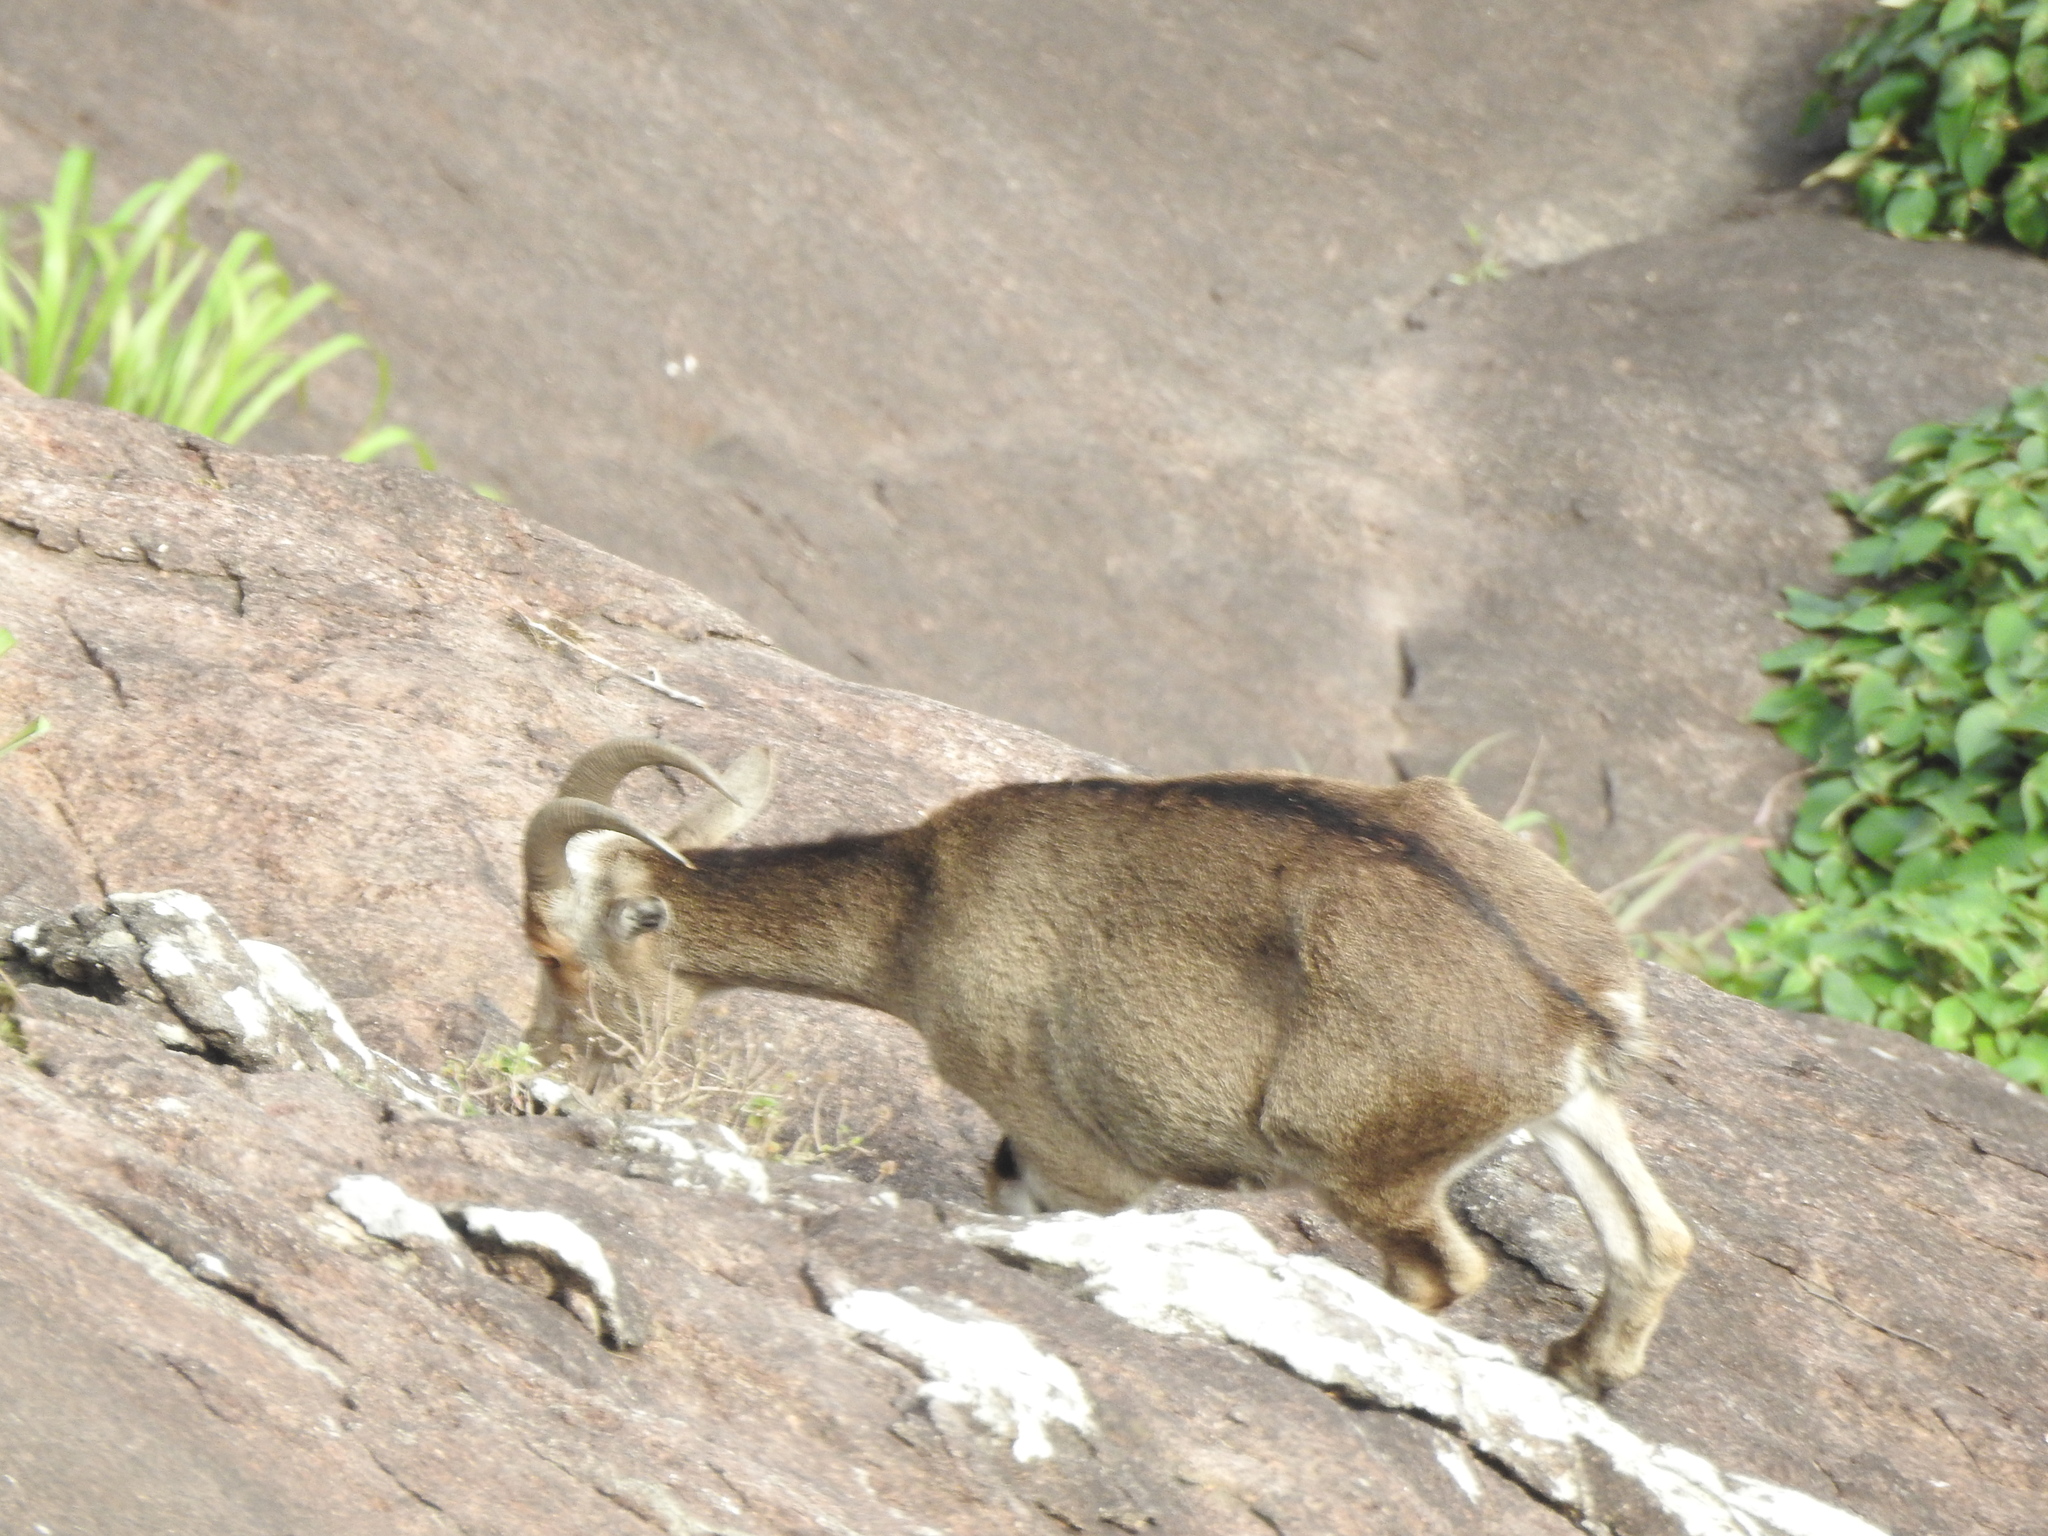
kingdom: Animalia
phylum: Chordata
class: Mammalia
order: Artiodactyla
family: Bovidae
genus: Hemitragus
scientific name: Hemitragus hylocrius
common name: Nilgiri tahr
